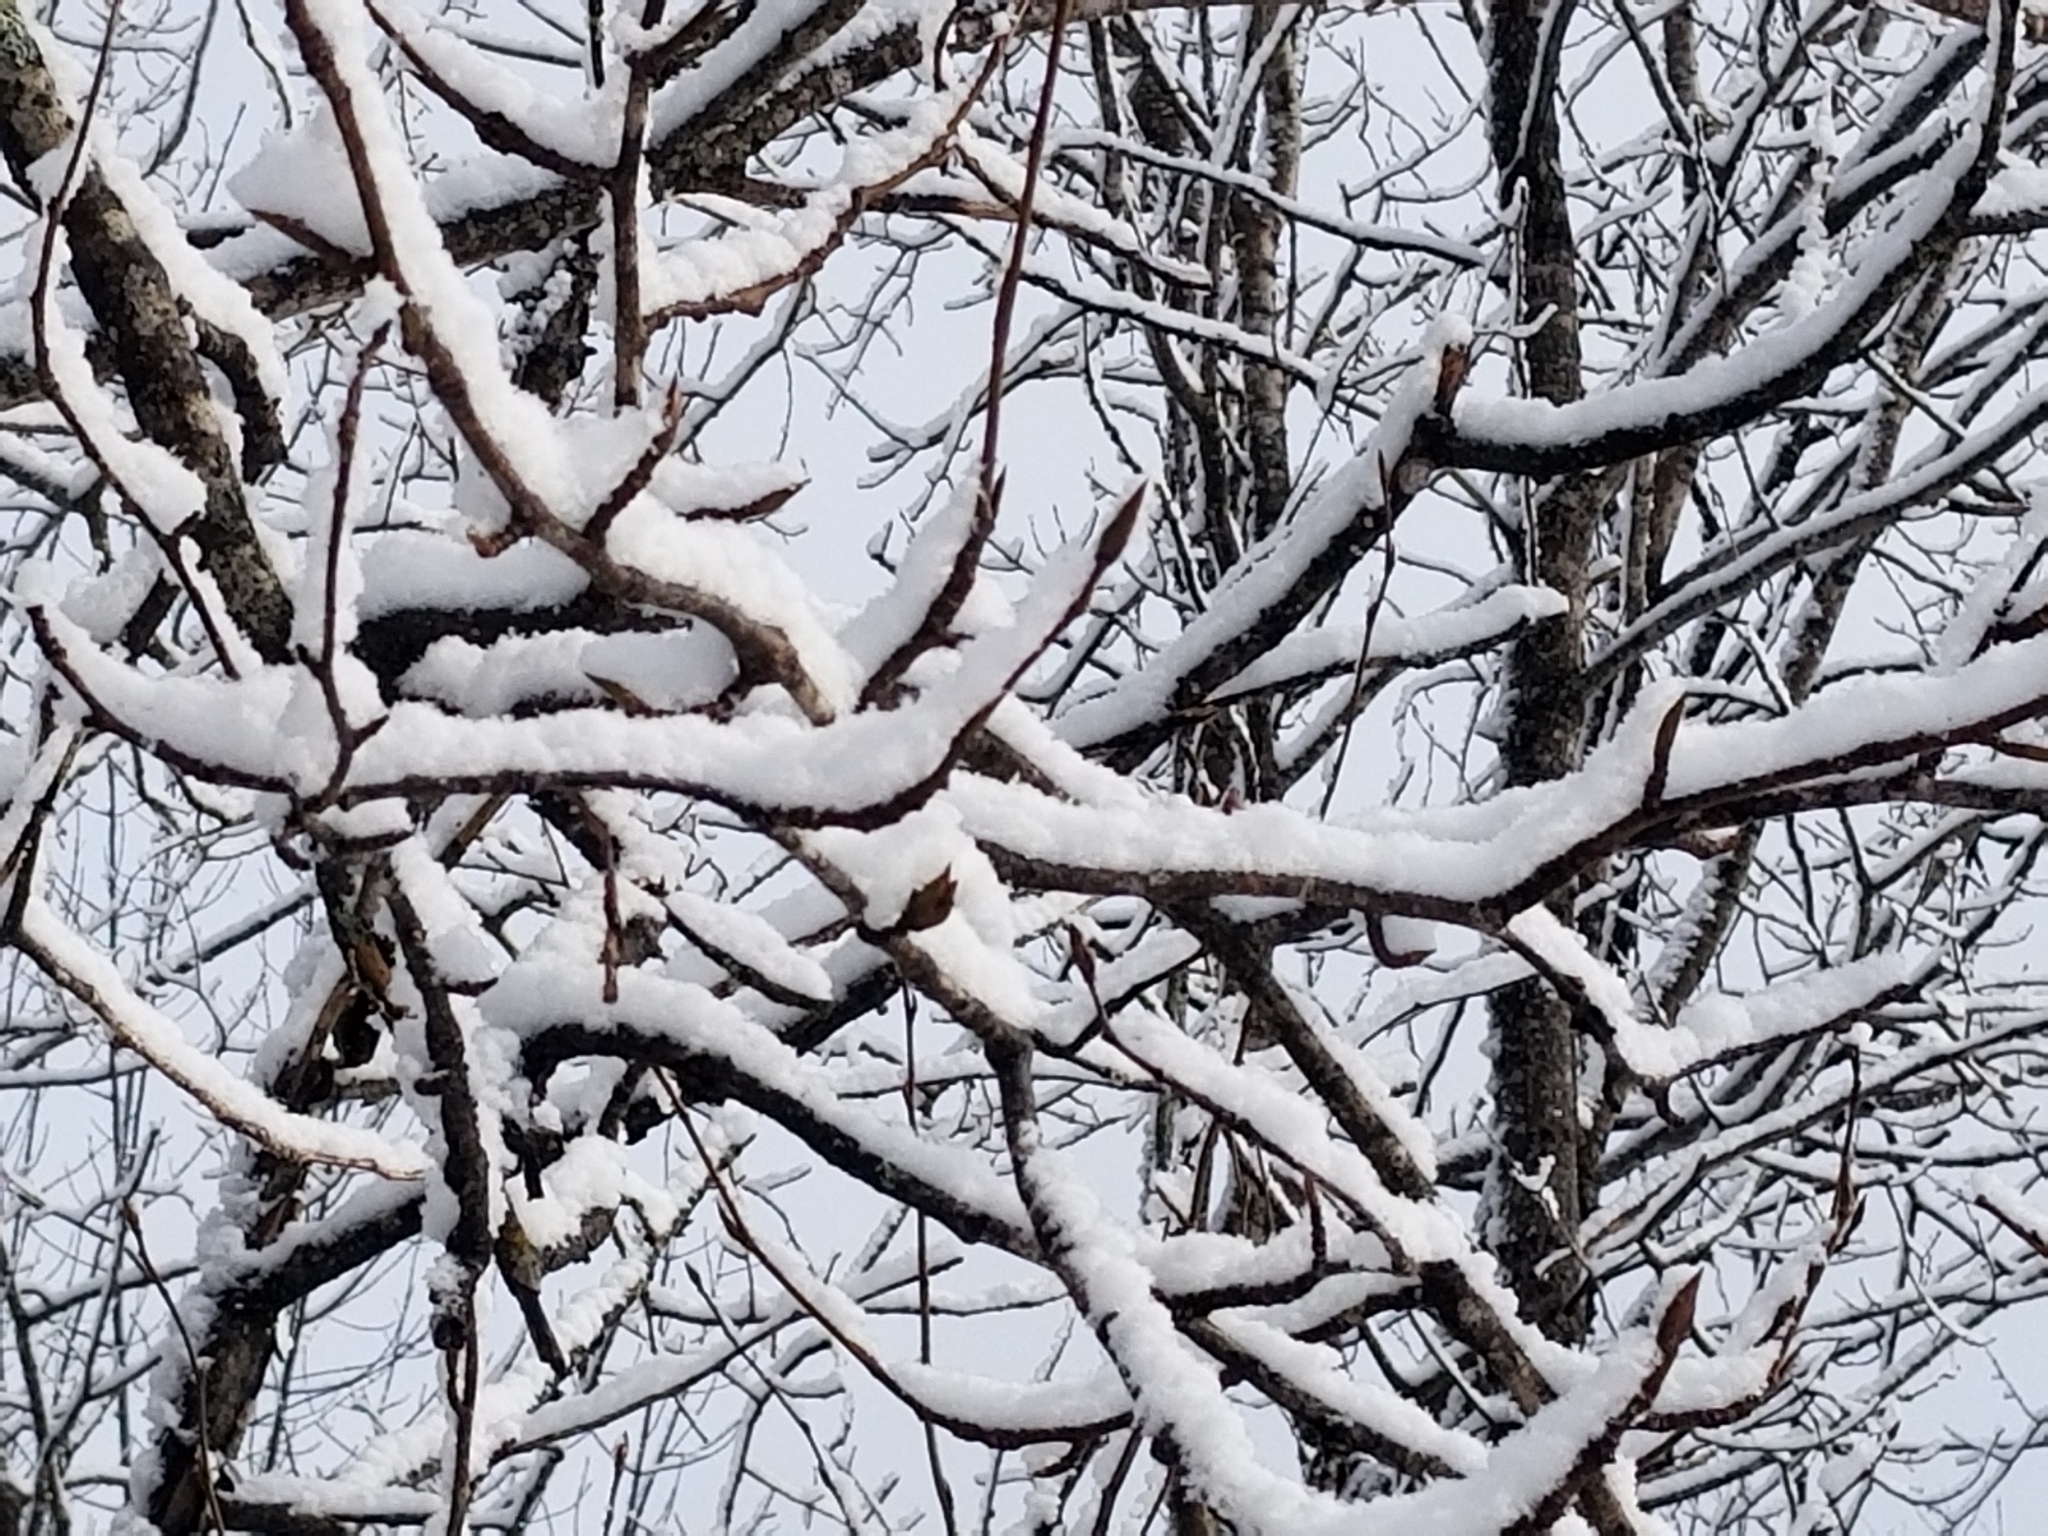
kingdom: Plantae
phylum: Tracheophyta
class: Magnoliopsida
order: Malpighiales
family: Salicaceae
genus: Populus
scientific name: Populus balsamifera
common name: Balsam poplar
